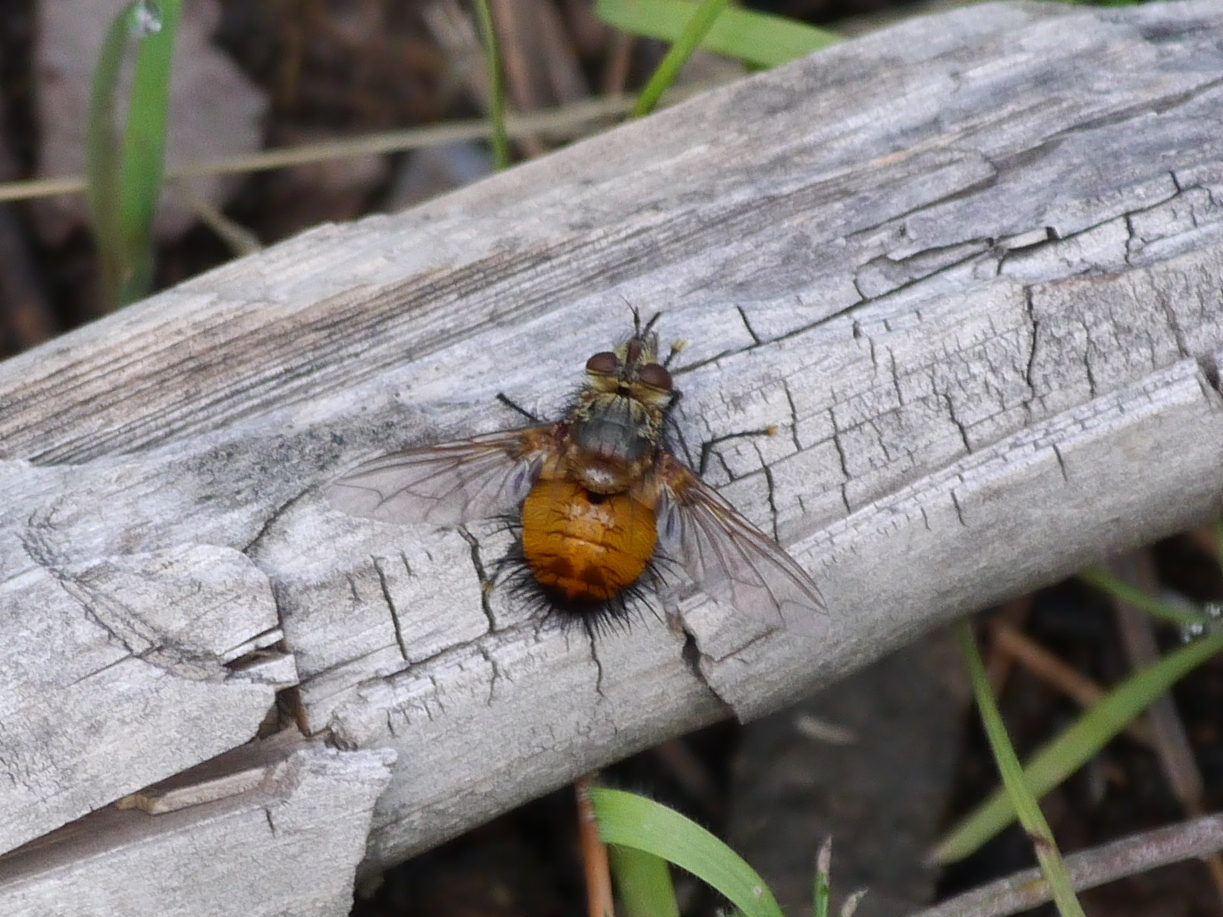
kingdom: Animalia
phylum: Arthropoda
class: Insecta
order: Diptera
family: Tachinidae
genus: Protodejeania
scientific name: Protodejeania hystricosa
